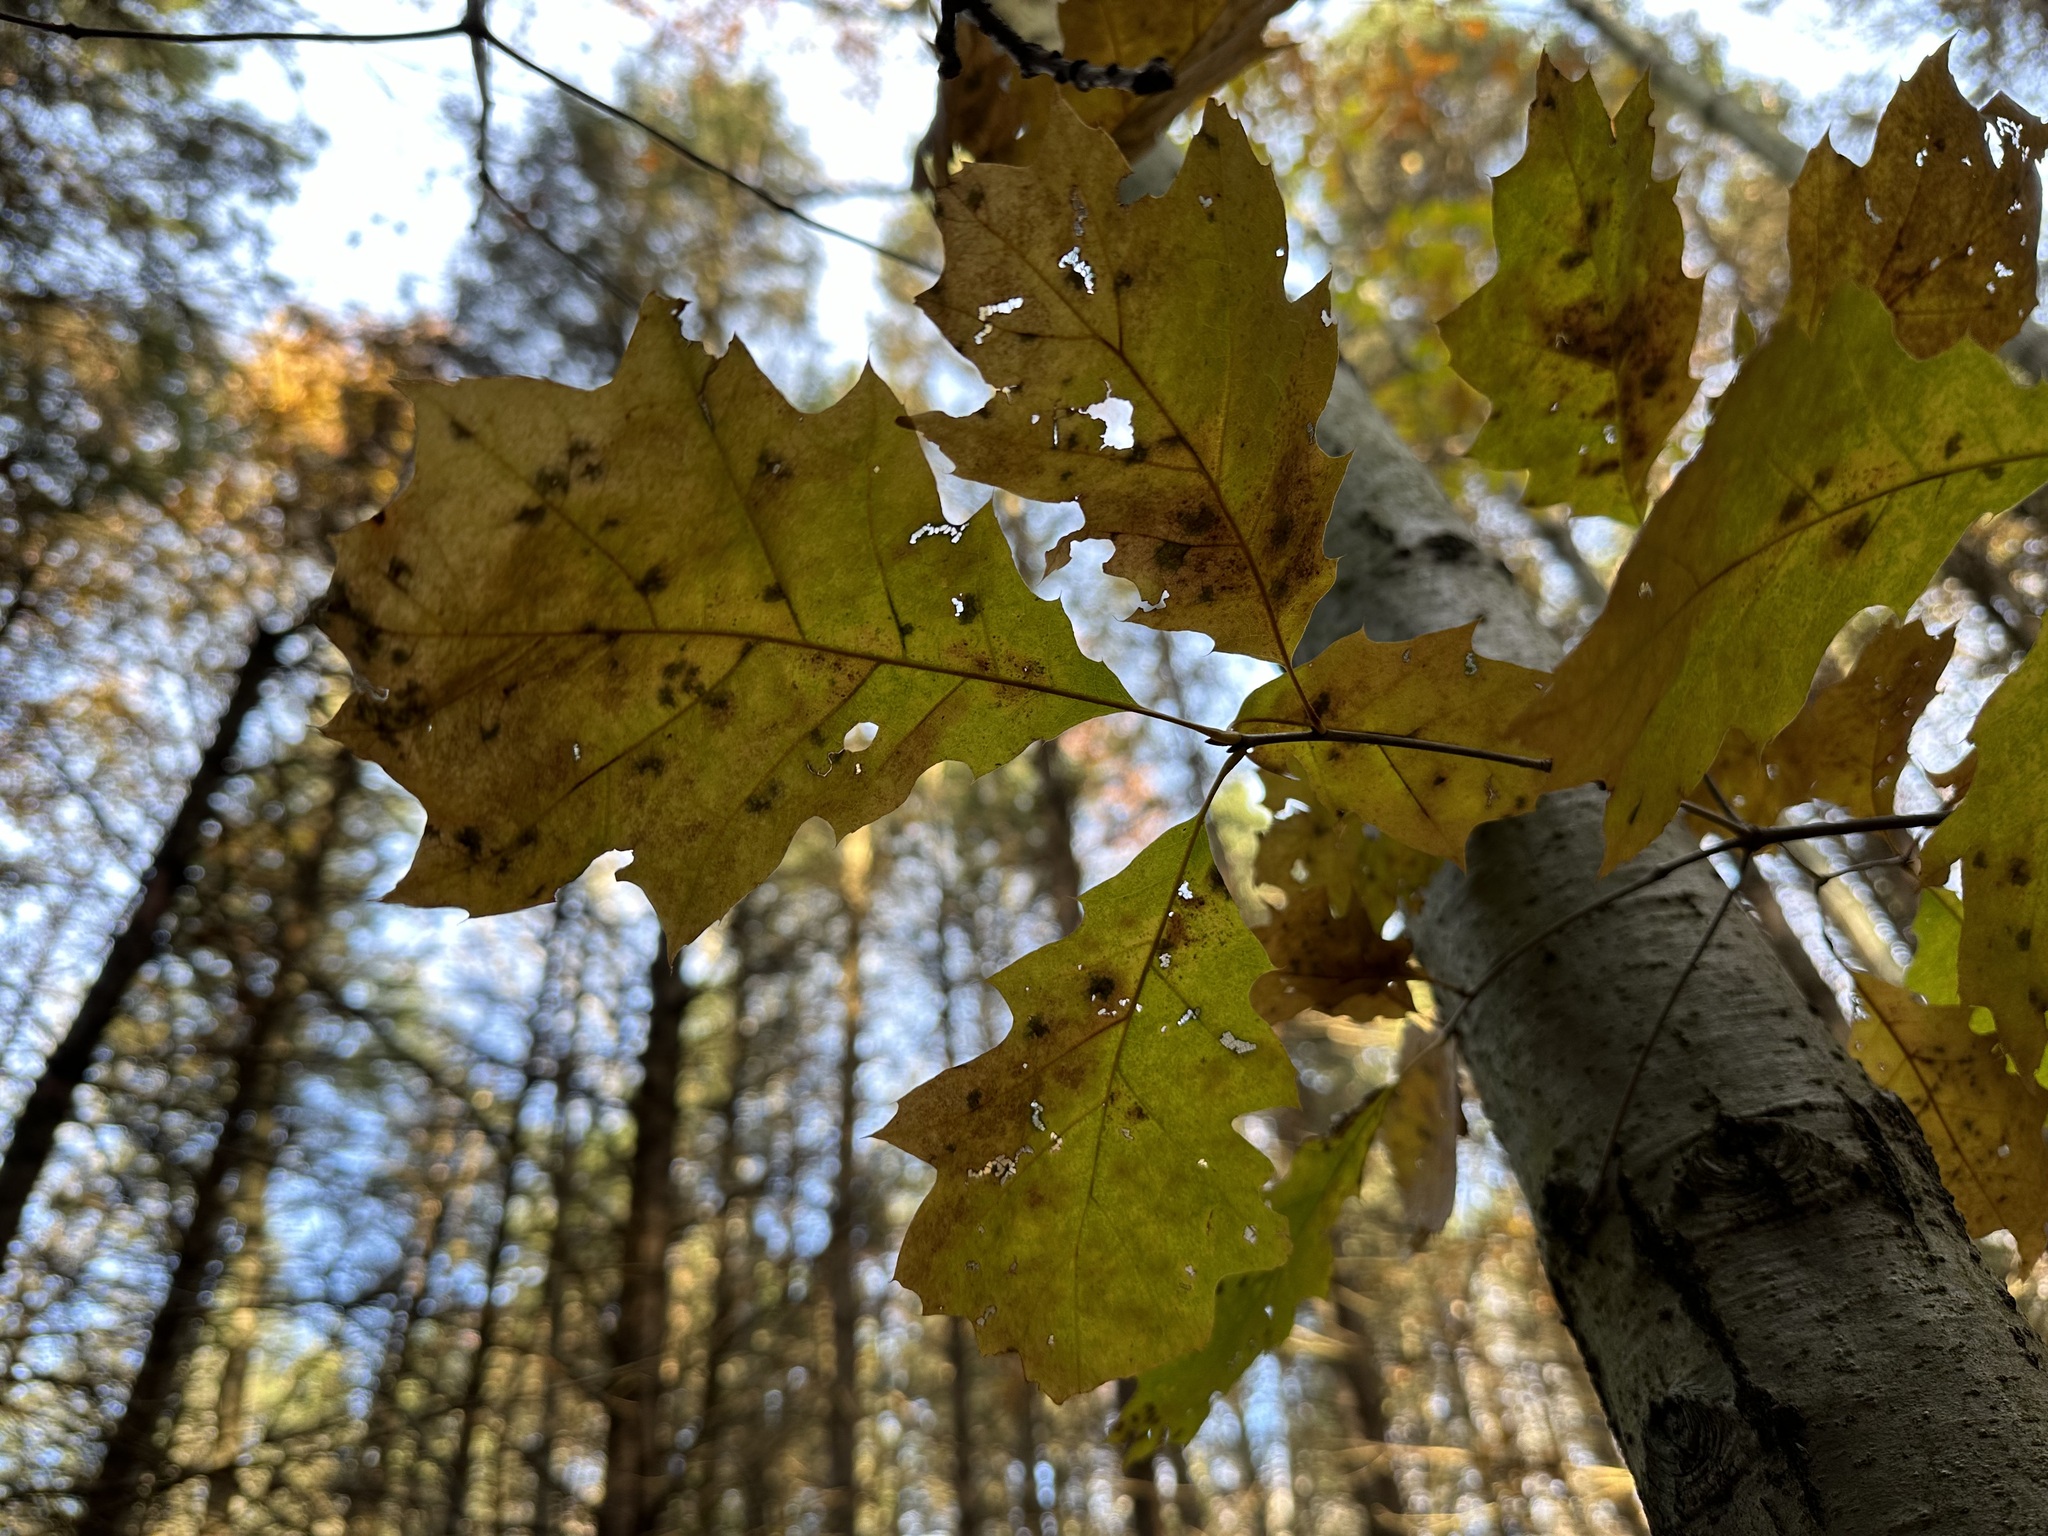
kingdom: Plantae
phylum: Tracheophyta
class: Magnoliopsida
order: Fagales
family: Fagaceae
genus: Quercus
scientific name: Quercus rubra
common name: Red oak
